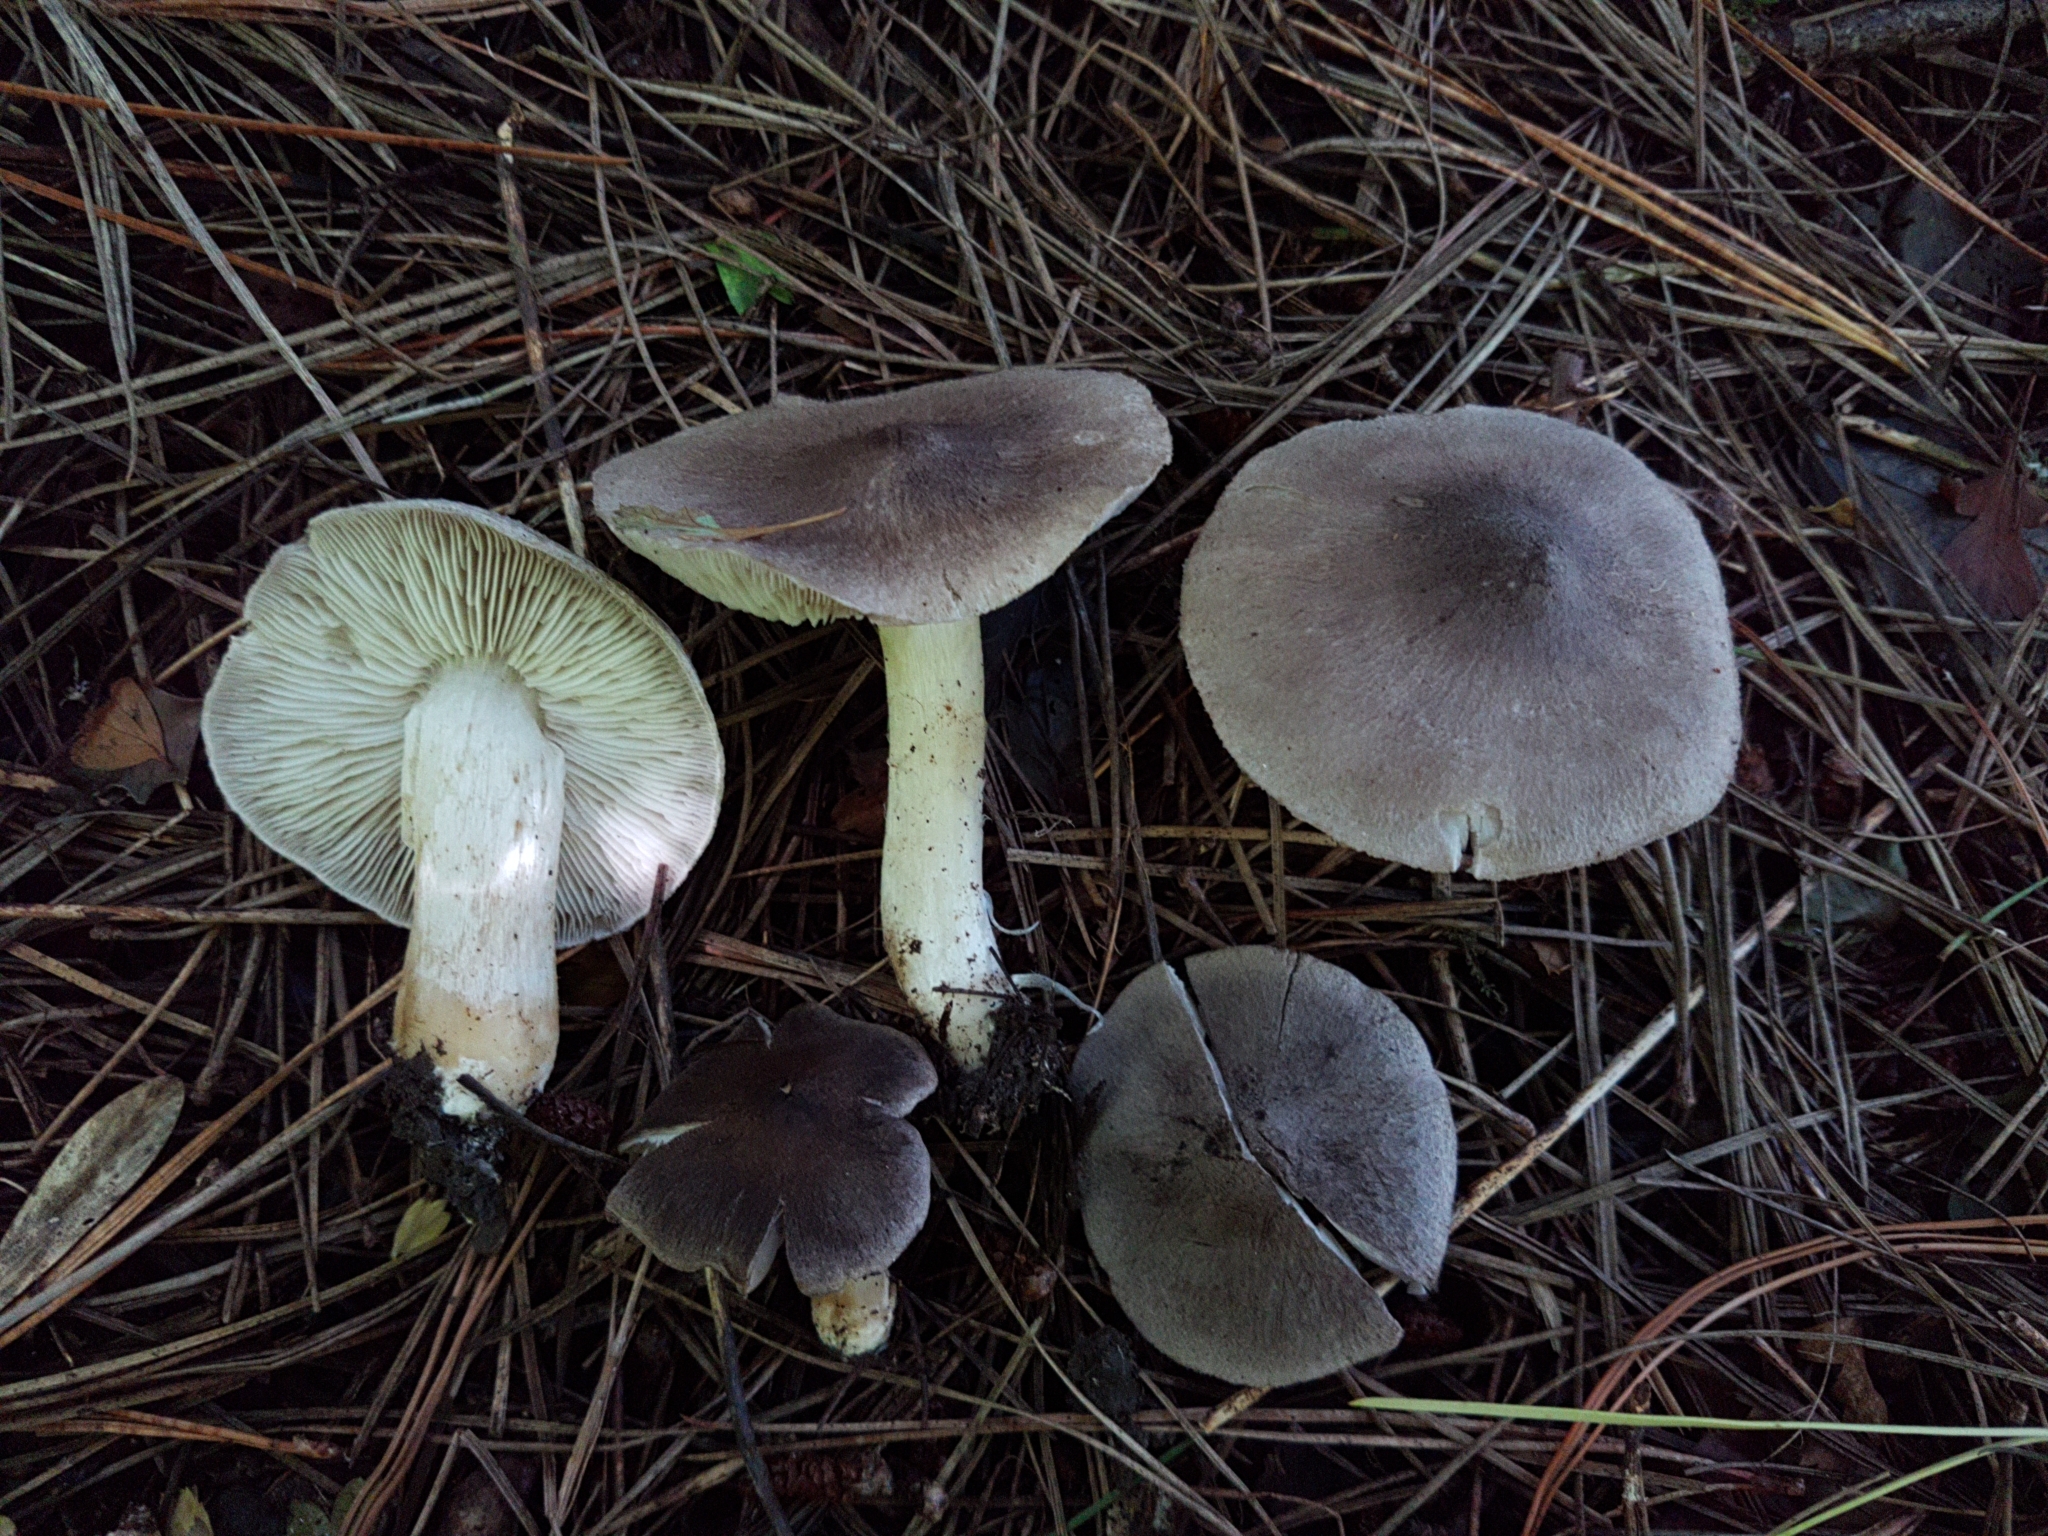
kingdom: Fungi
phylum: Basidiomycota
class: Agaricomycetes
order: Agaricales
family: Tricholomataceae
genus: Tricholoma
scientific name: Tricholoma terreum
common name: Grey knight
